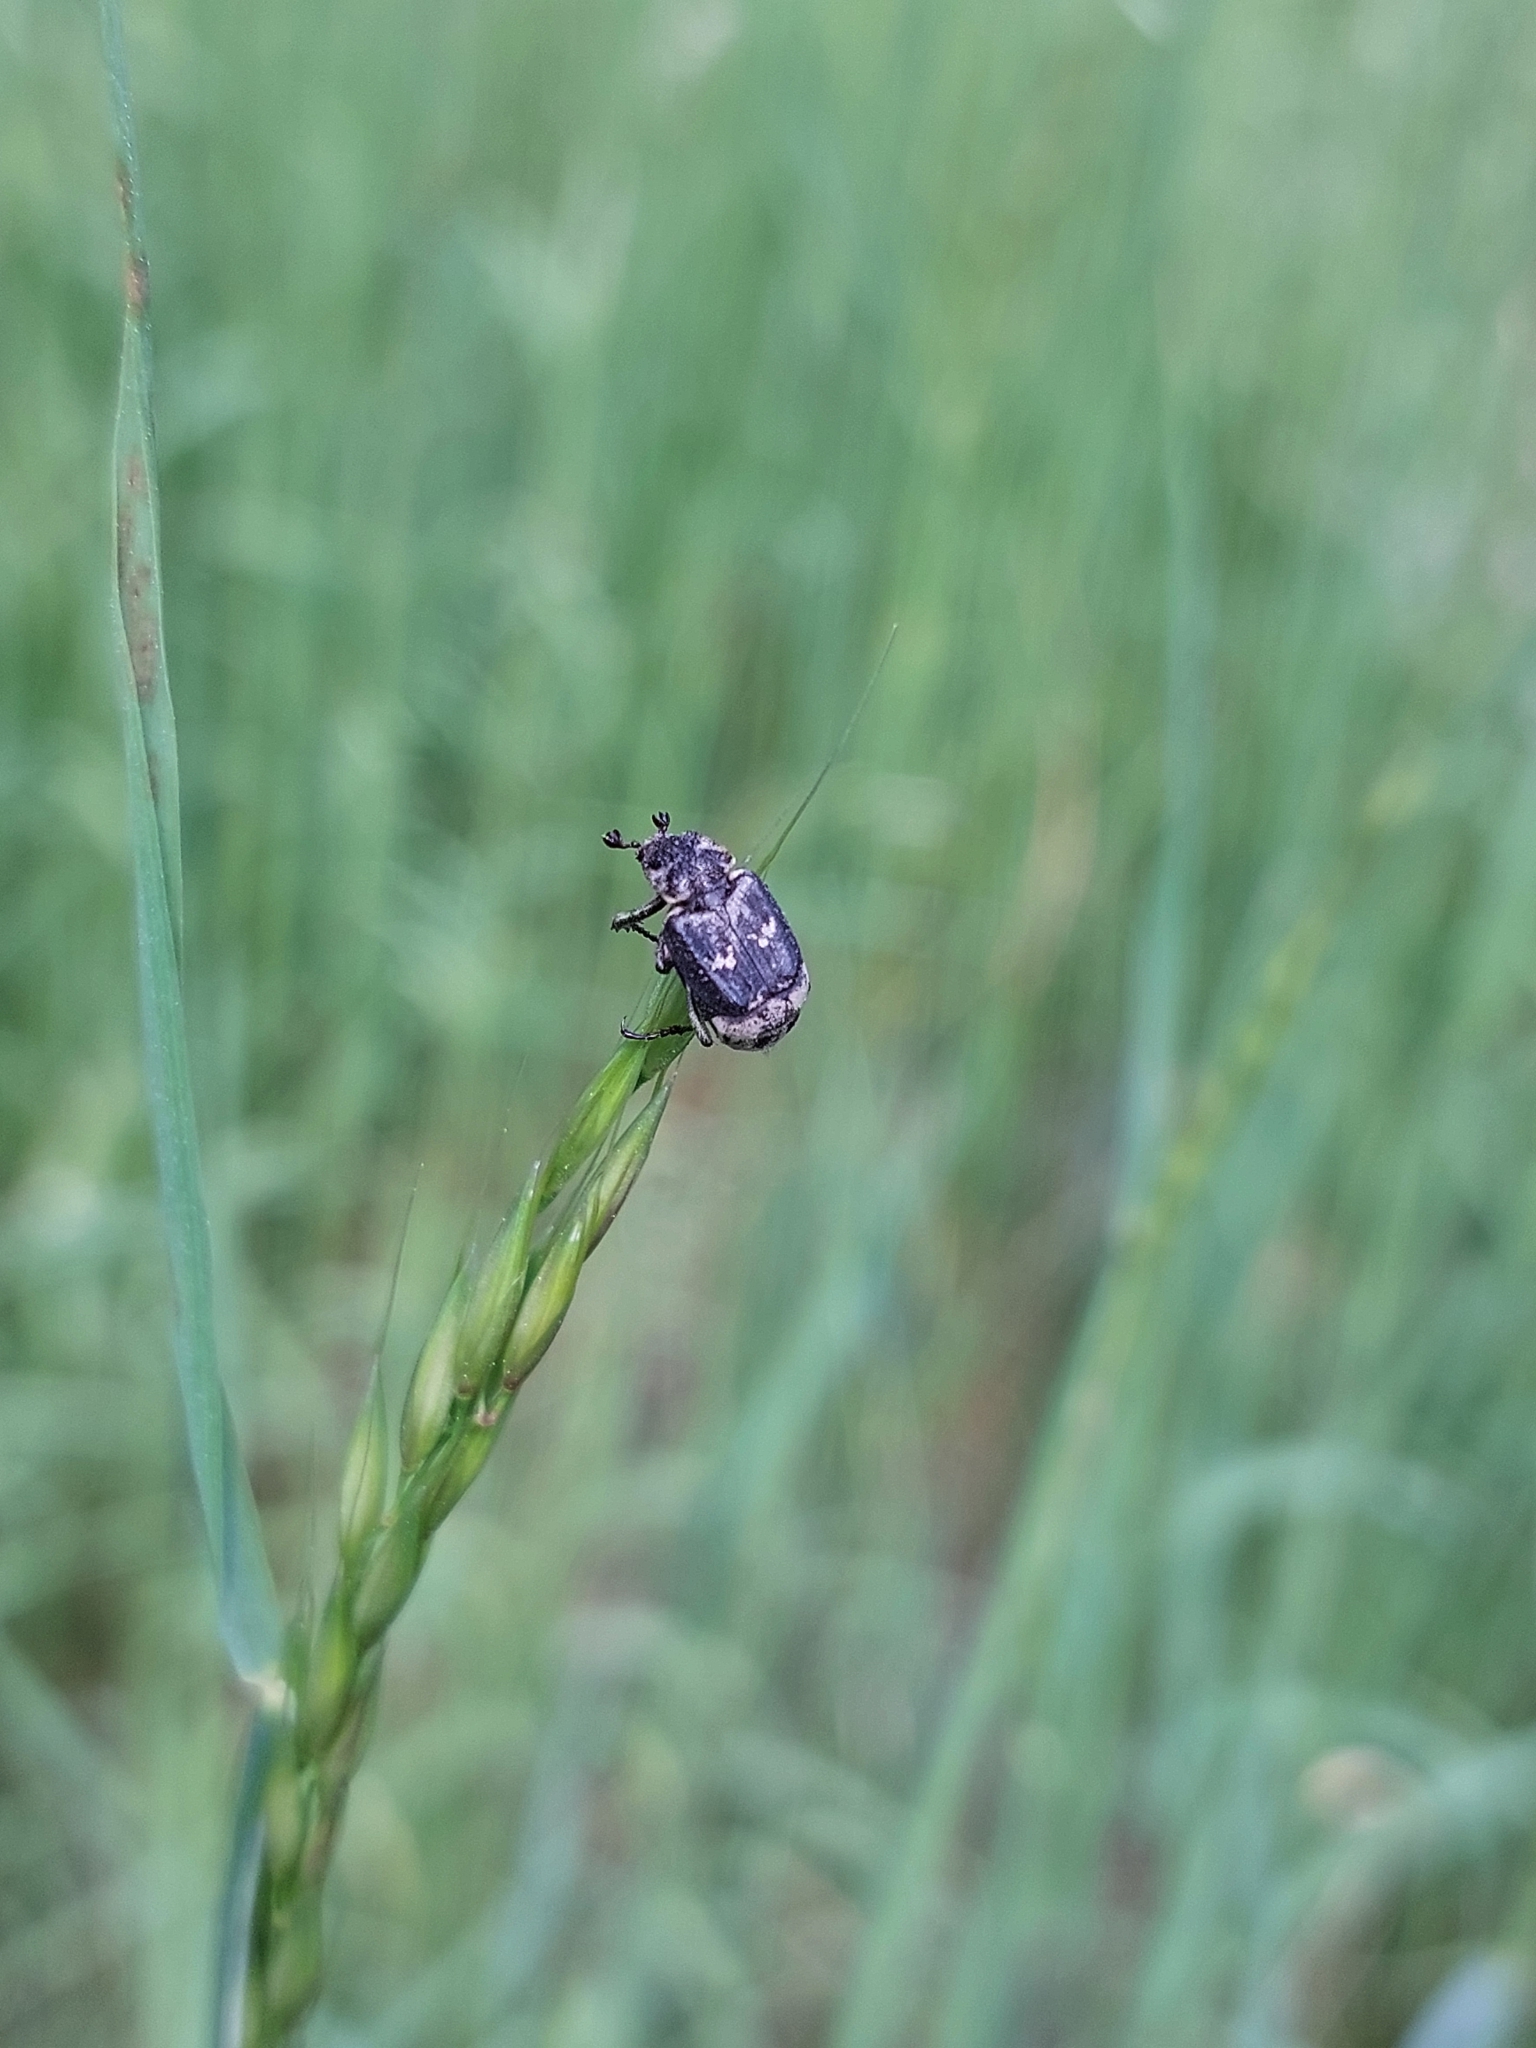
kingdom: Animalia
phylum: Arthropoda
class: Insecta
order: Coleoptera
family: Scarabaeidae
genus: Valgus
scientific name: Valgus hemipterus
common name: Bug flower chafer
